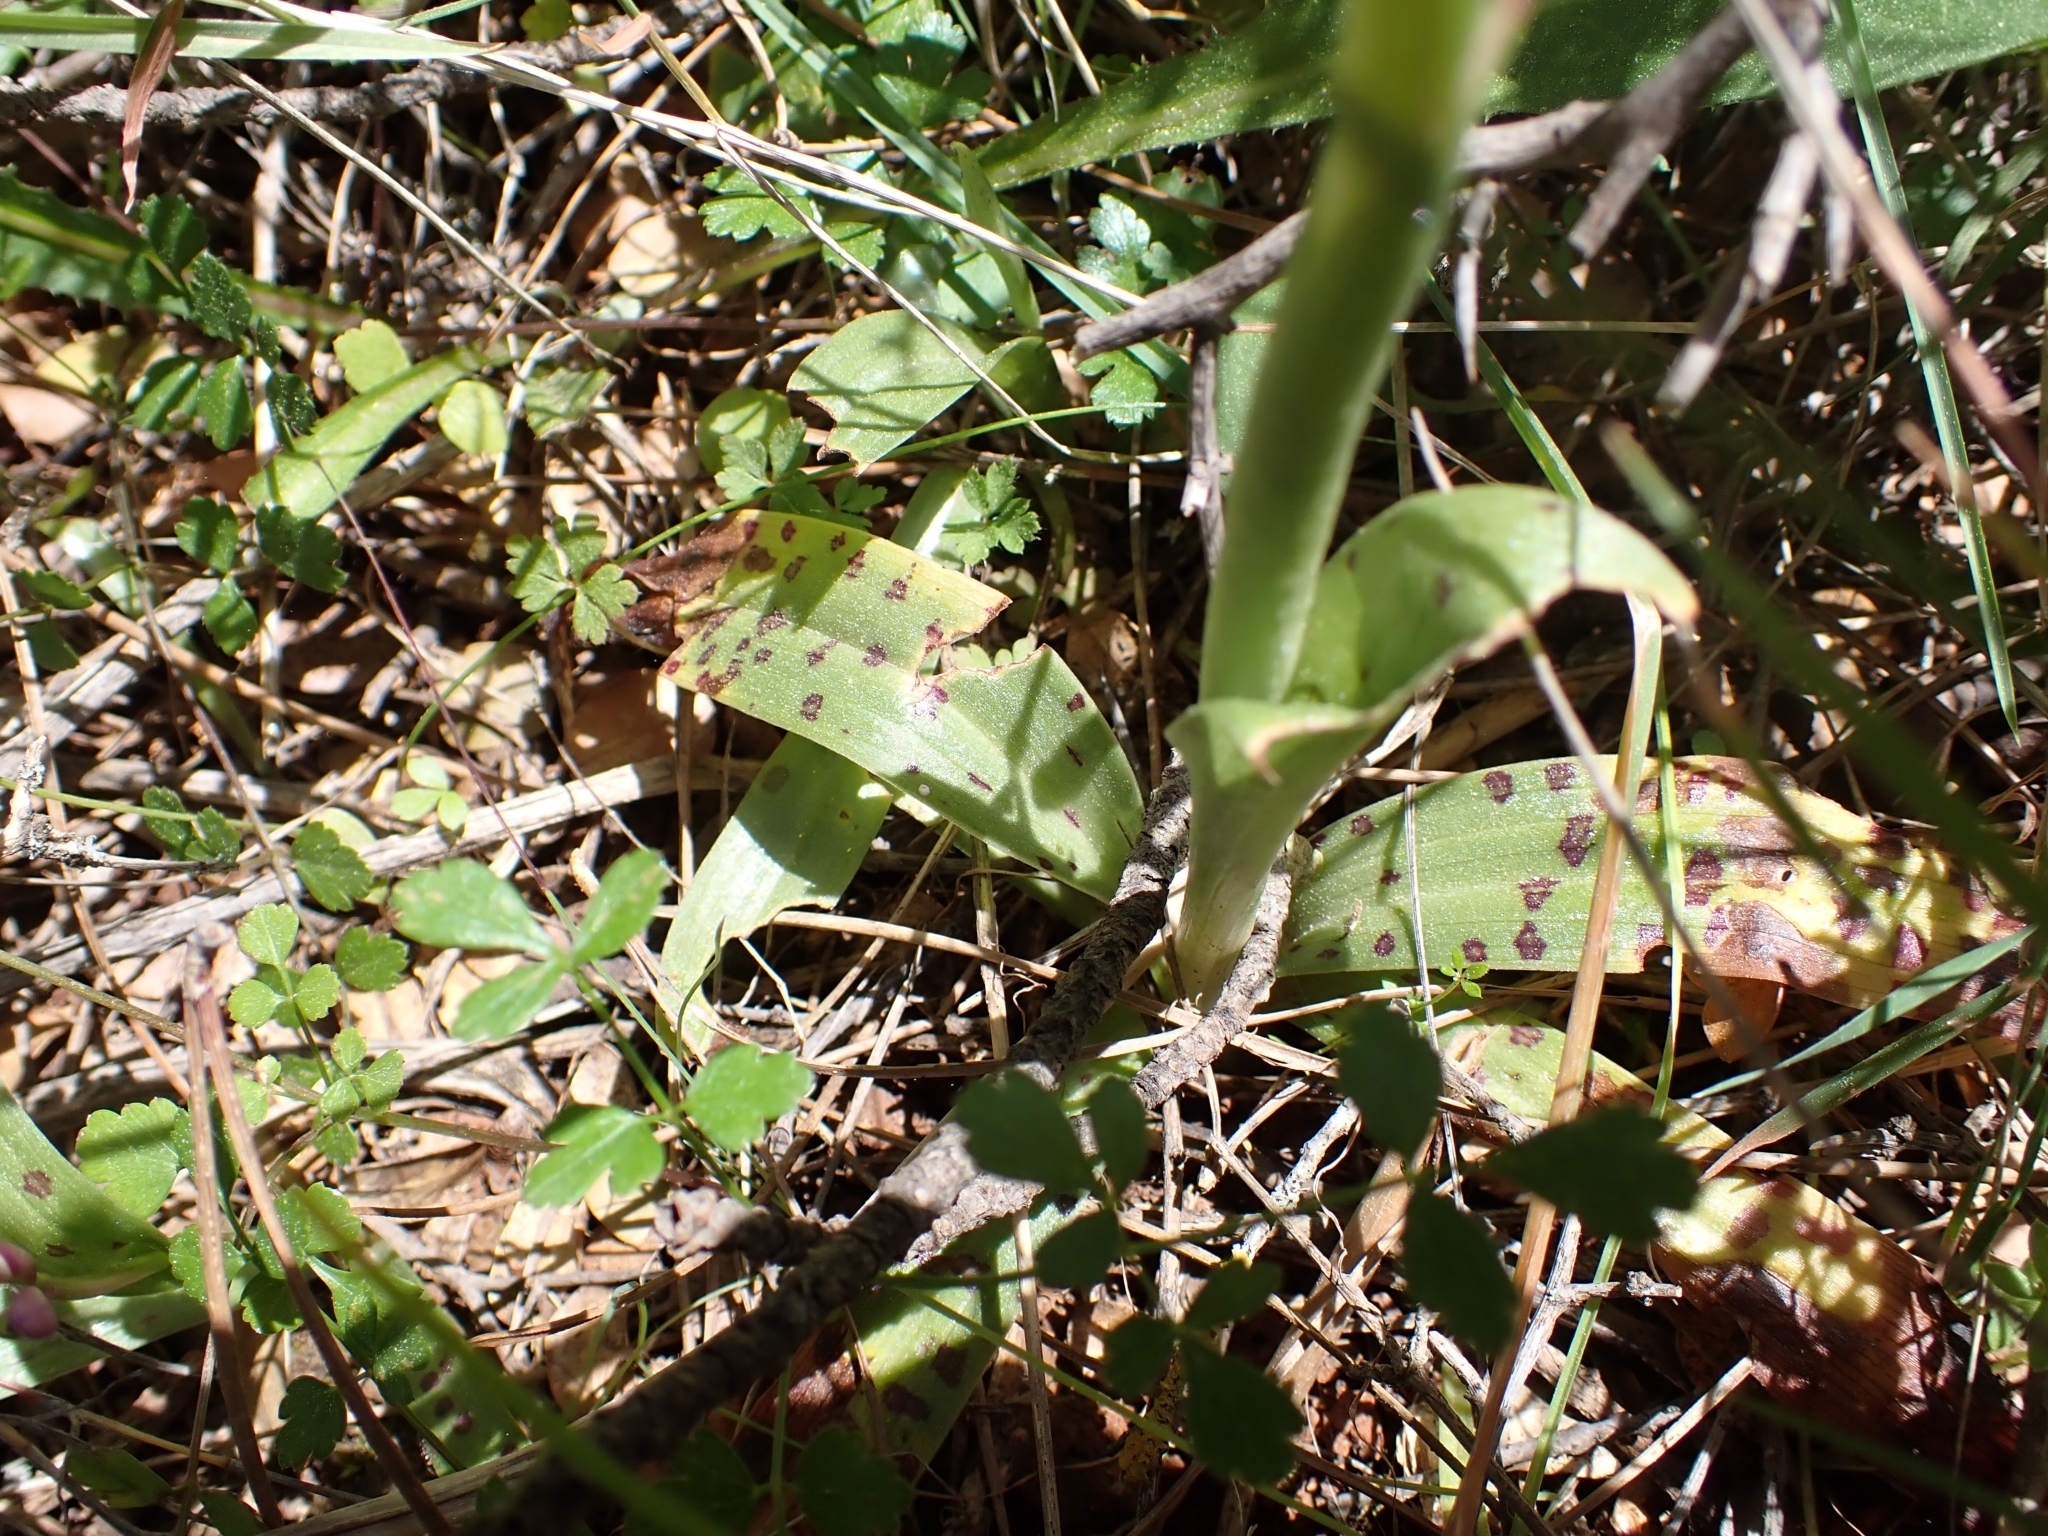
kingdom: Plantae
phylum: Tracheophyta
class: Liliopsida
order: Asparagales
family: Orchidaceae
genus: Orchis
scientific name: Orchis quadripunctata
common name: Four-spotted orchid
